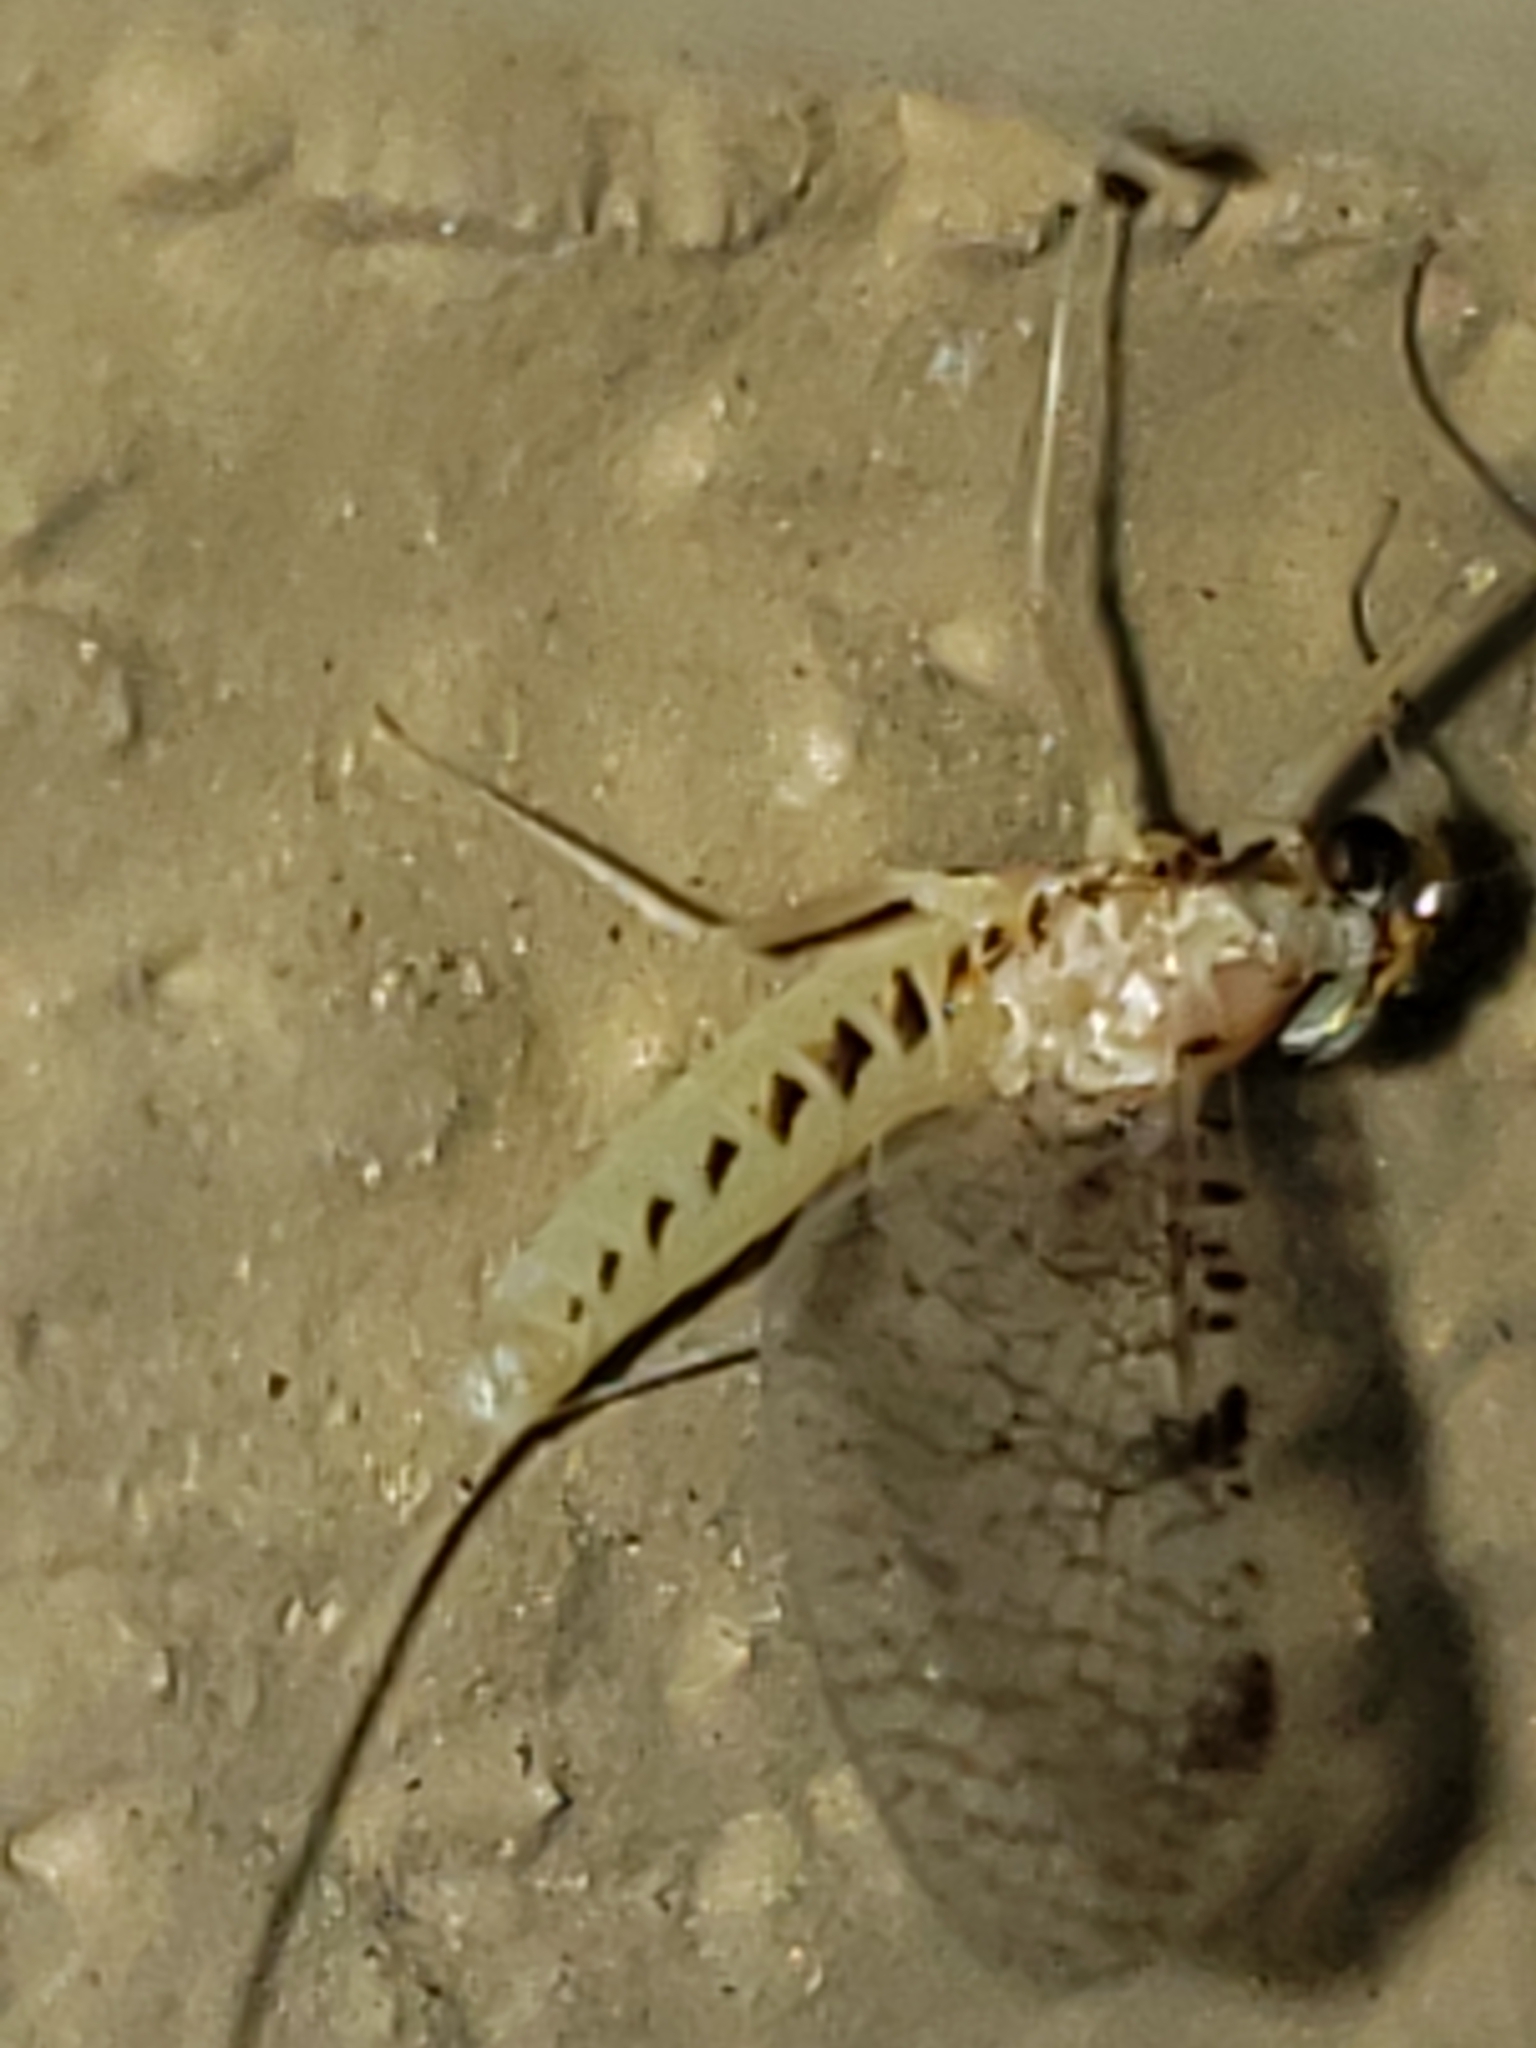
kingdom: Animalia
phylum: Arthropoda
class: Insecta
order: Ephemeroptera
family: Heptageniidae
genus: Leucrocuta
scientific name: Leucrocuta minerva
